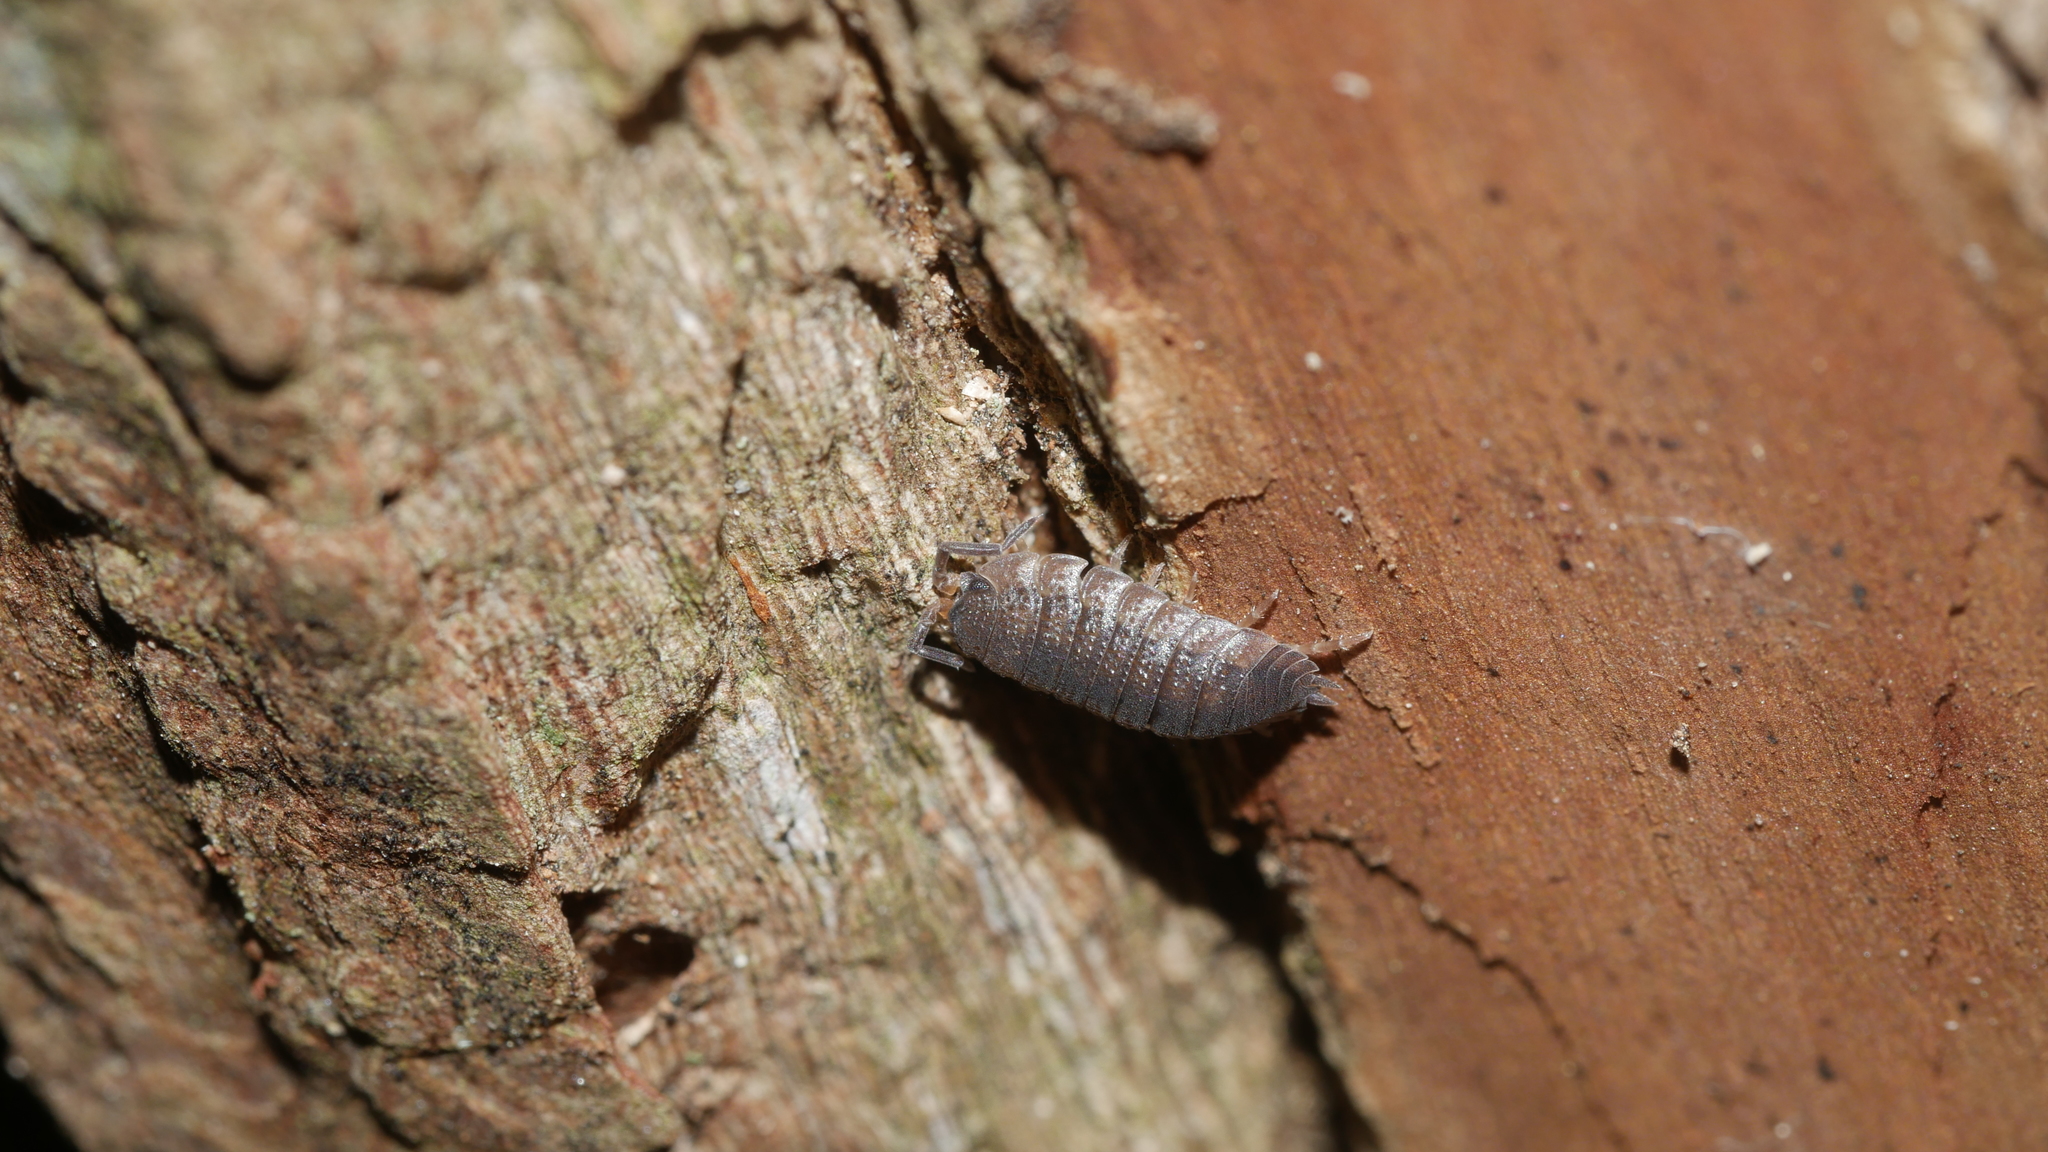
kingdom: Animalia
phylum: Arthropoda
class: Malacostraca
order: Isopoda
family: Porcellionidae
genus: Porcellio
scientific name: Porcellio scaber
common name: Common rough woodlouse
